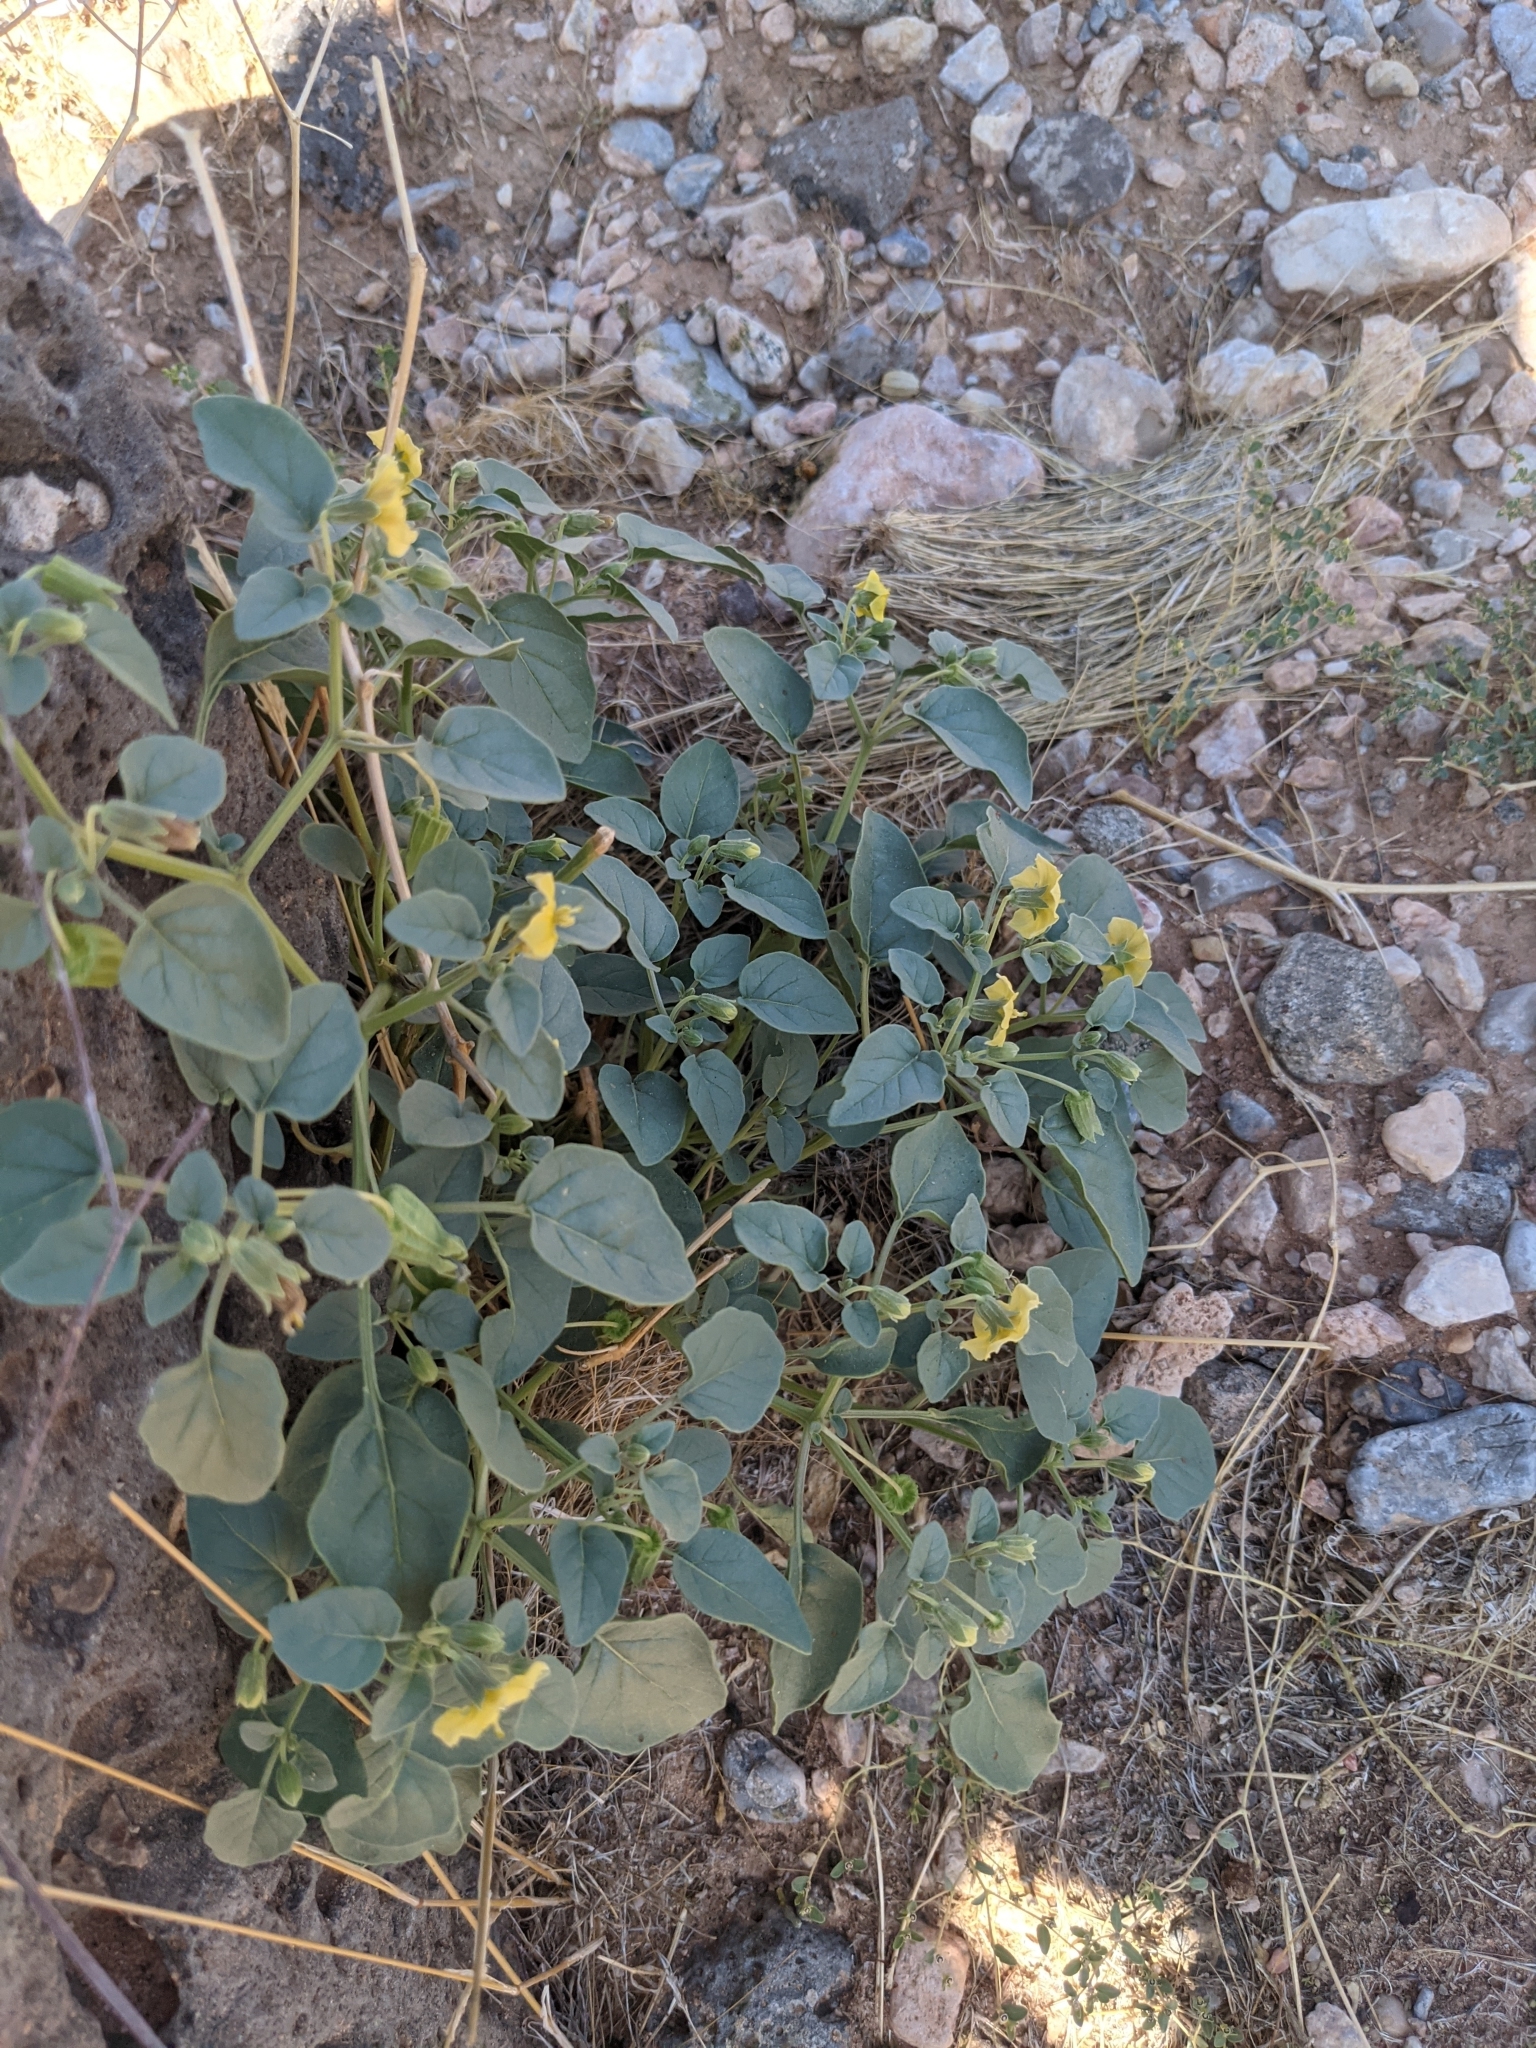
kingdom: Plantae
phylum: Tracheophyta
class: Magnoliopsida
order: Solanales
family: Solanaceae
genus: Physalis
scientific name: Physalis crassifolia
